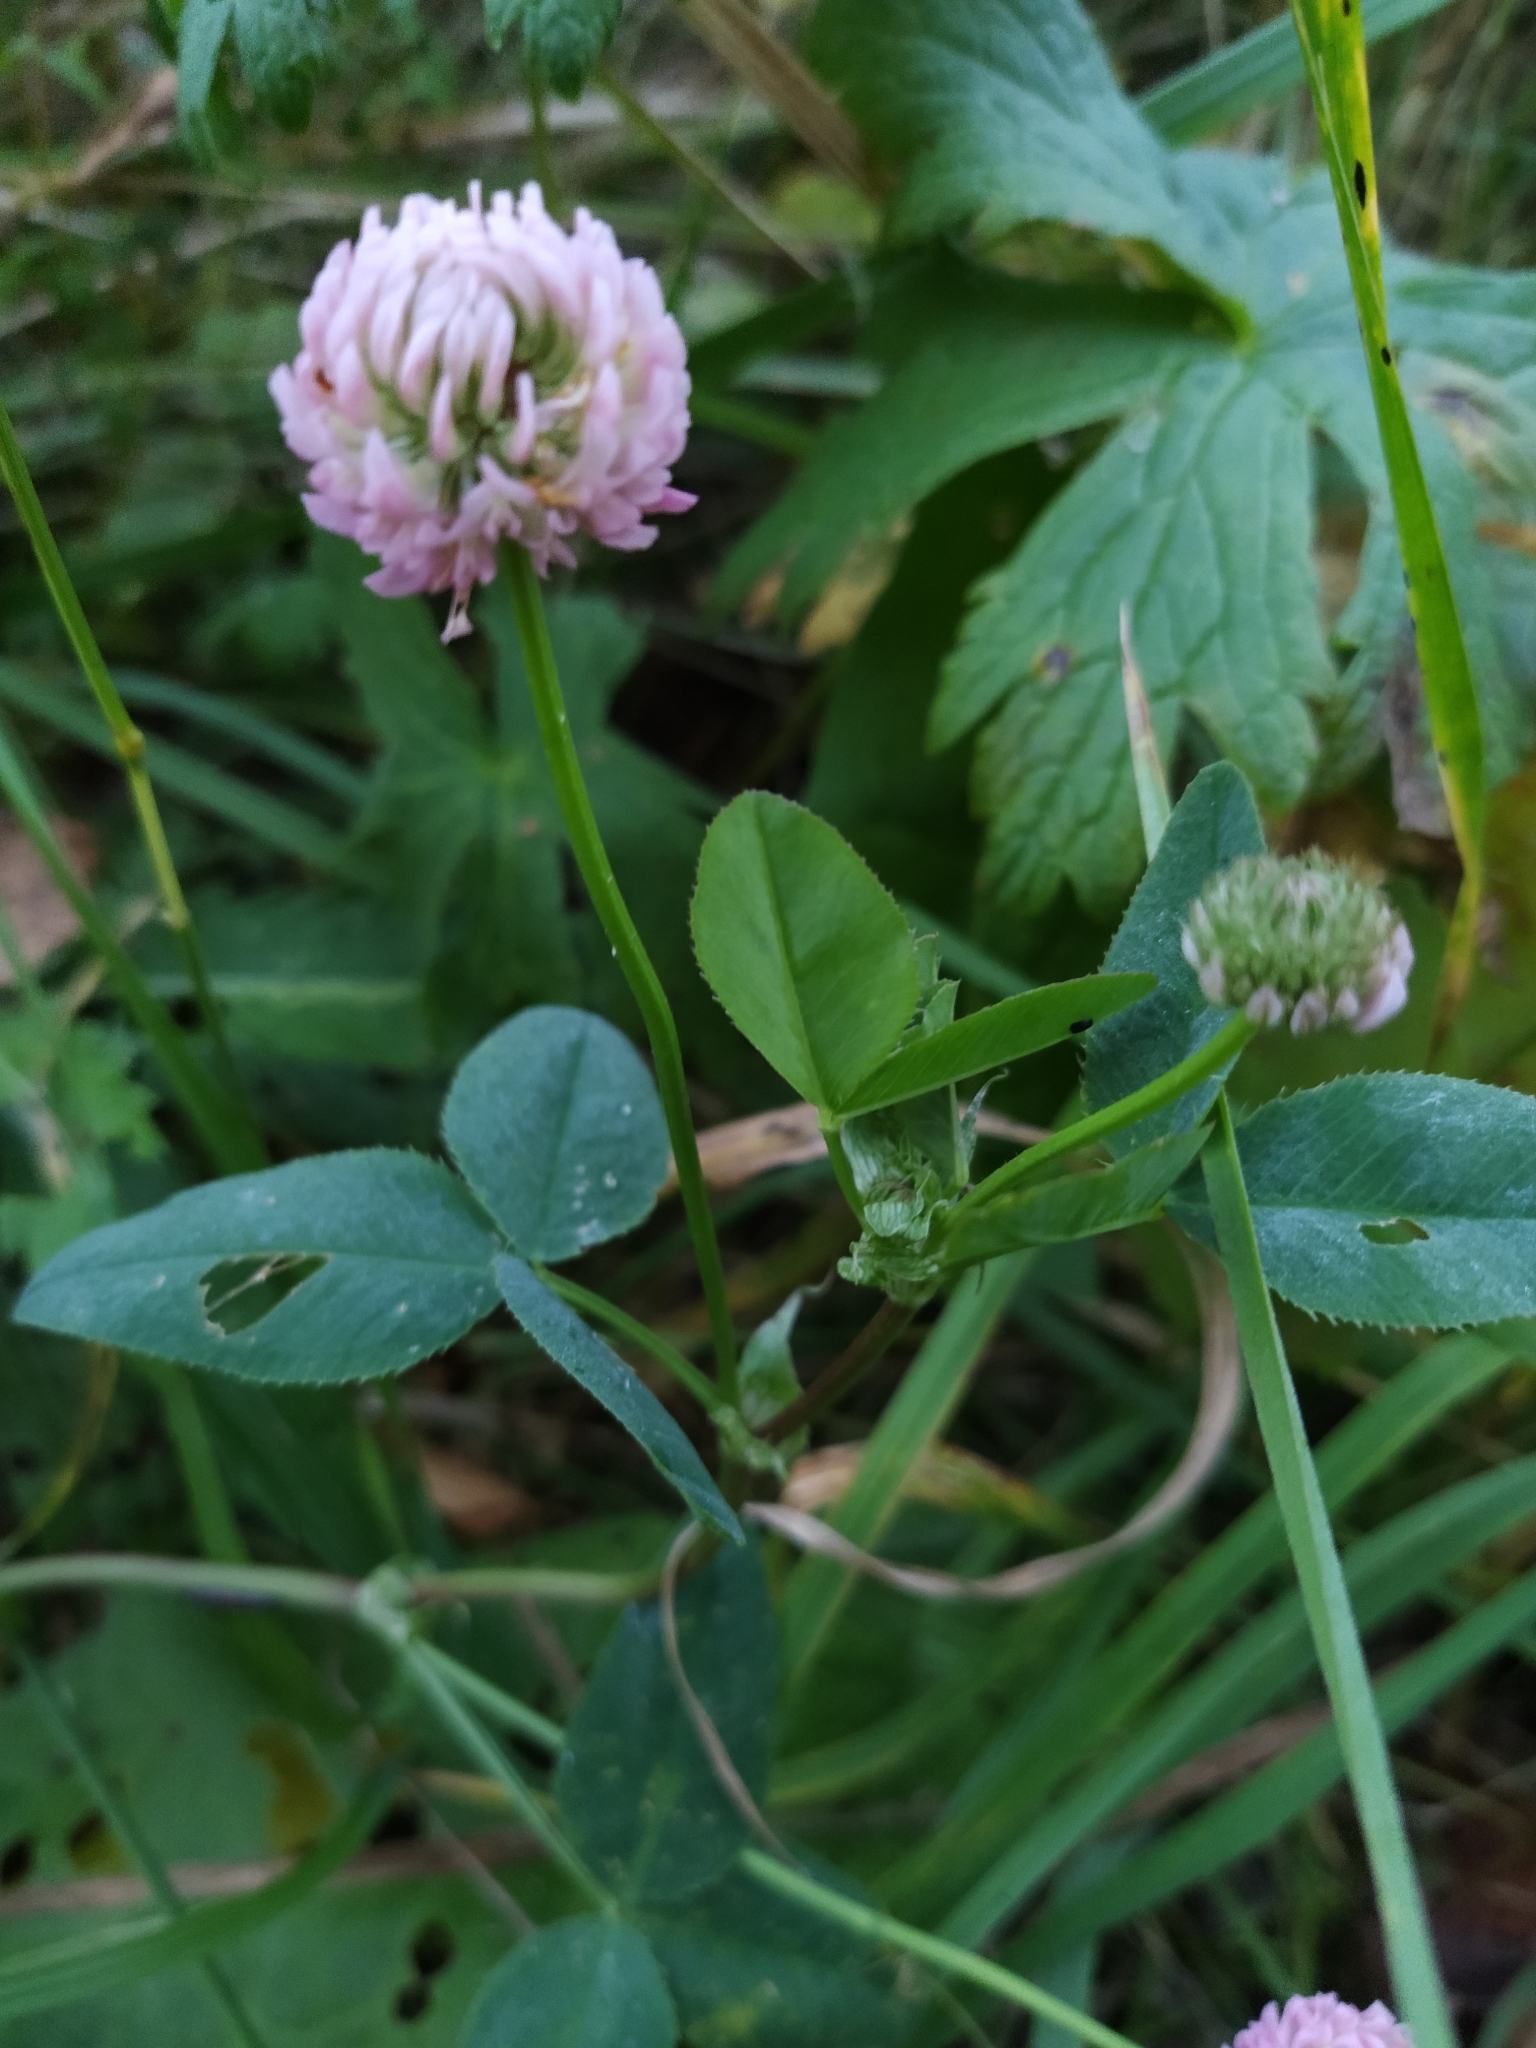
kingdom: Plantae
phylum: Tracheophyta
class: Magnoliopsida
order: Fabales
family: Fabaceae
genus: Trifolium
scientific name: Trifolium hybridum
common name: Alsike clover
